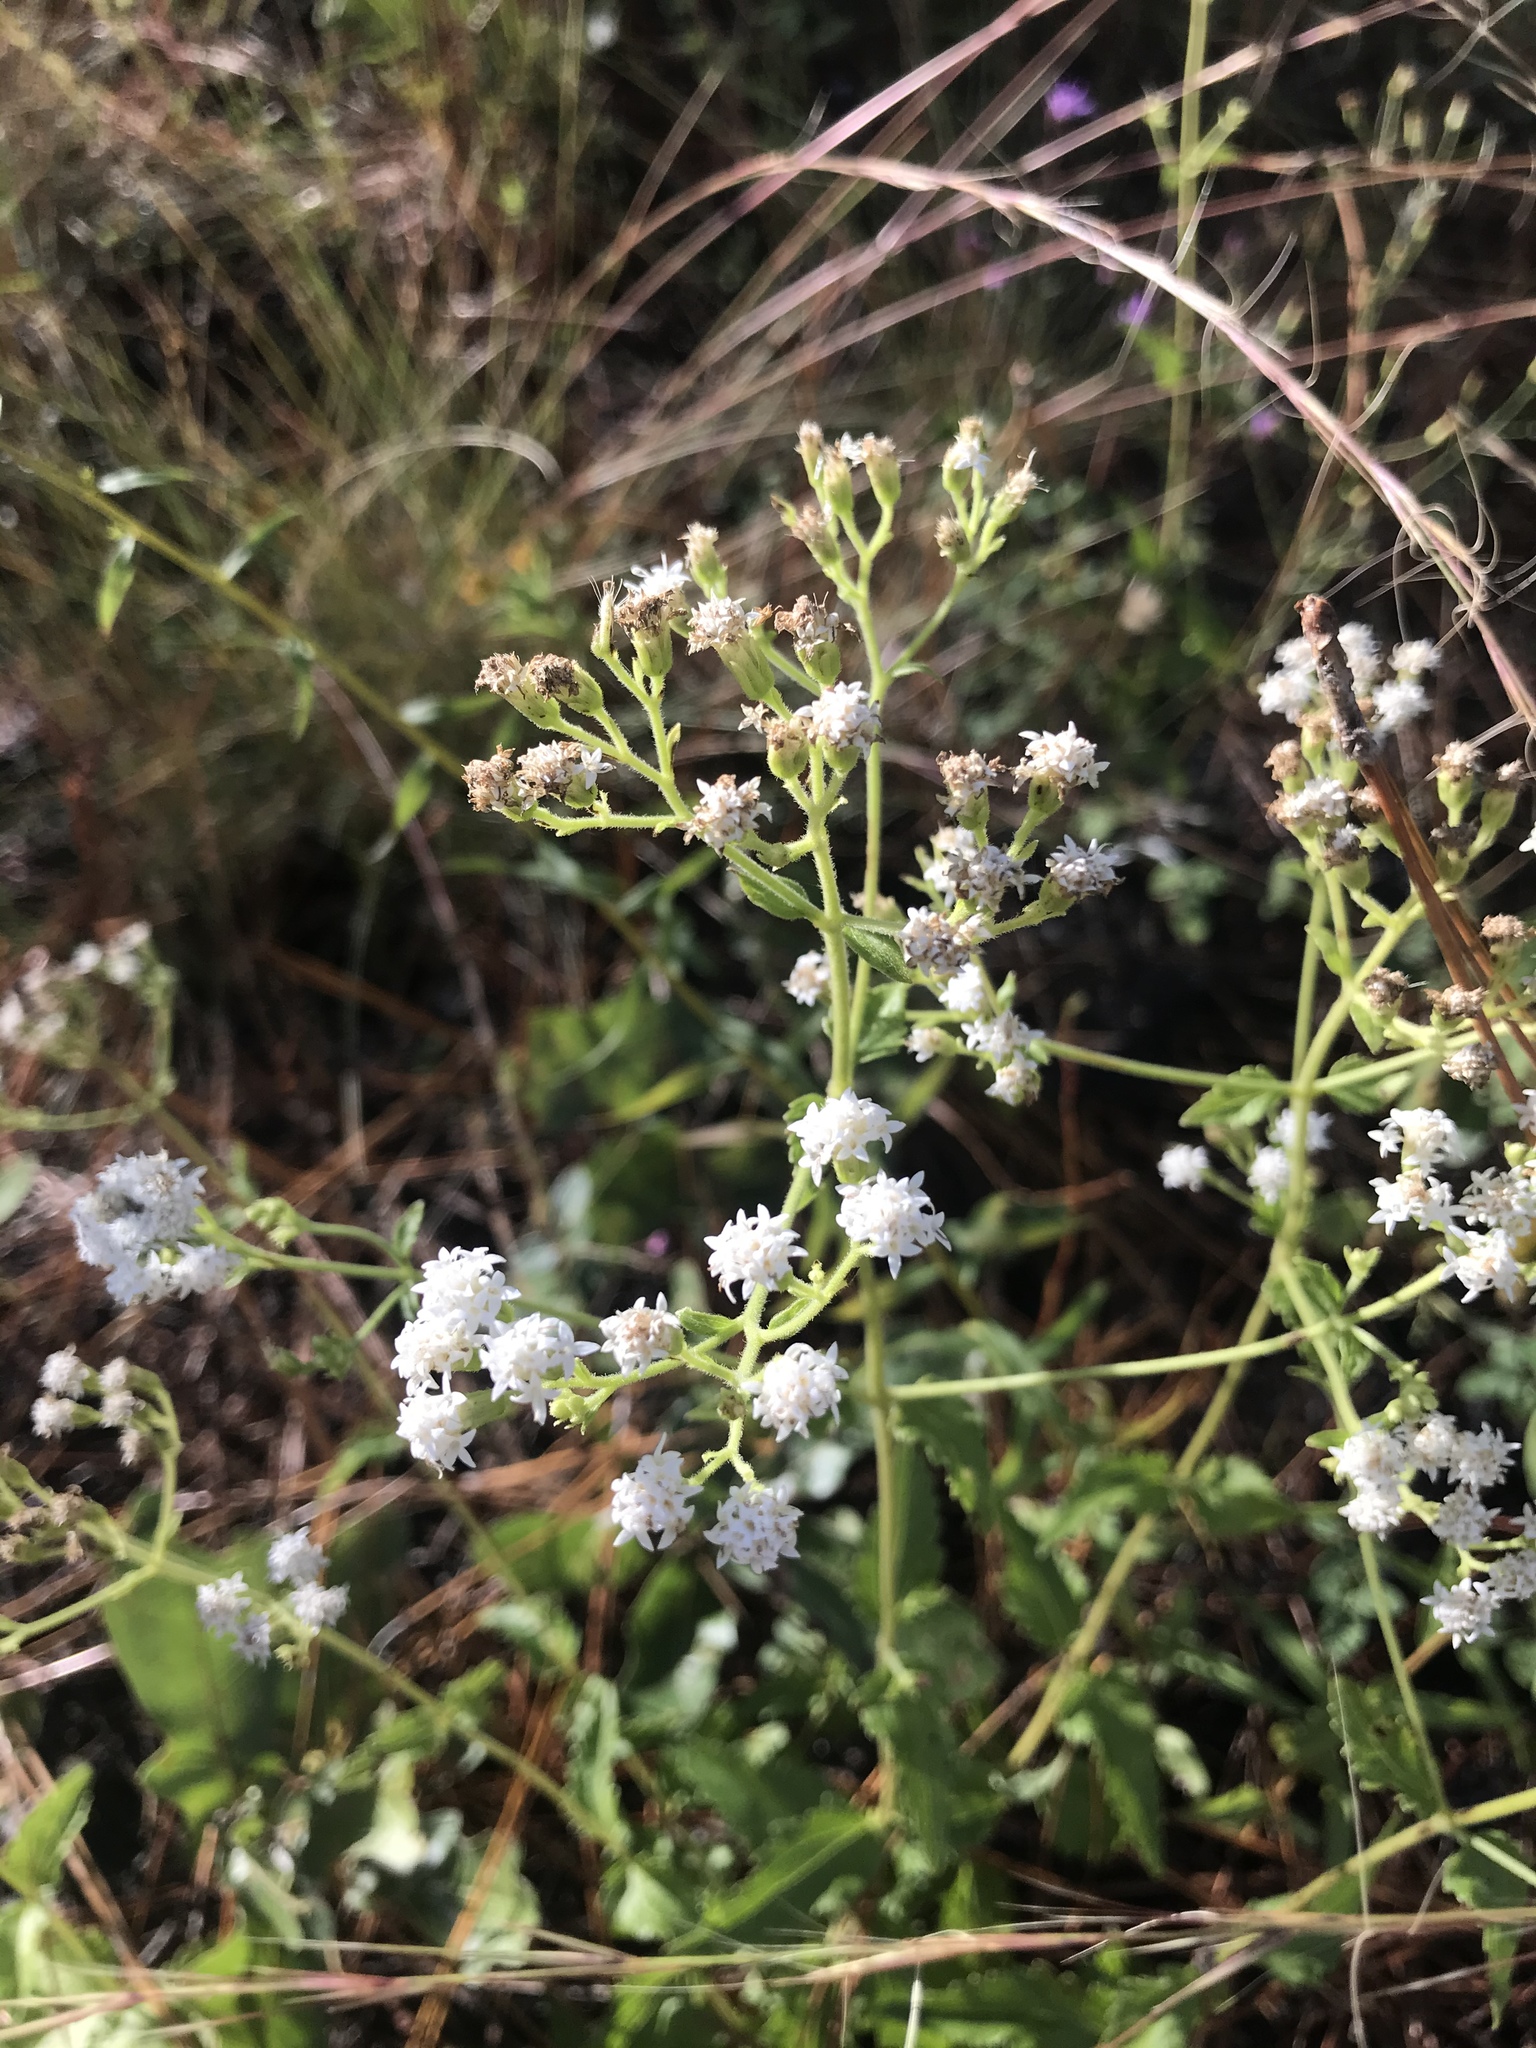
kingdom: Plantae
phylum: Tracheophyta
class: Magnoliopsida
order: Asterales
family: Asteraceae
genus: Ageratina
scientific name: Ageratina aromatica
